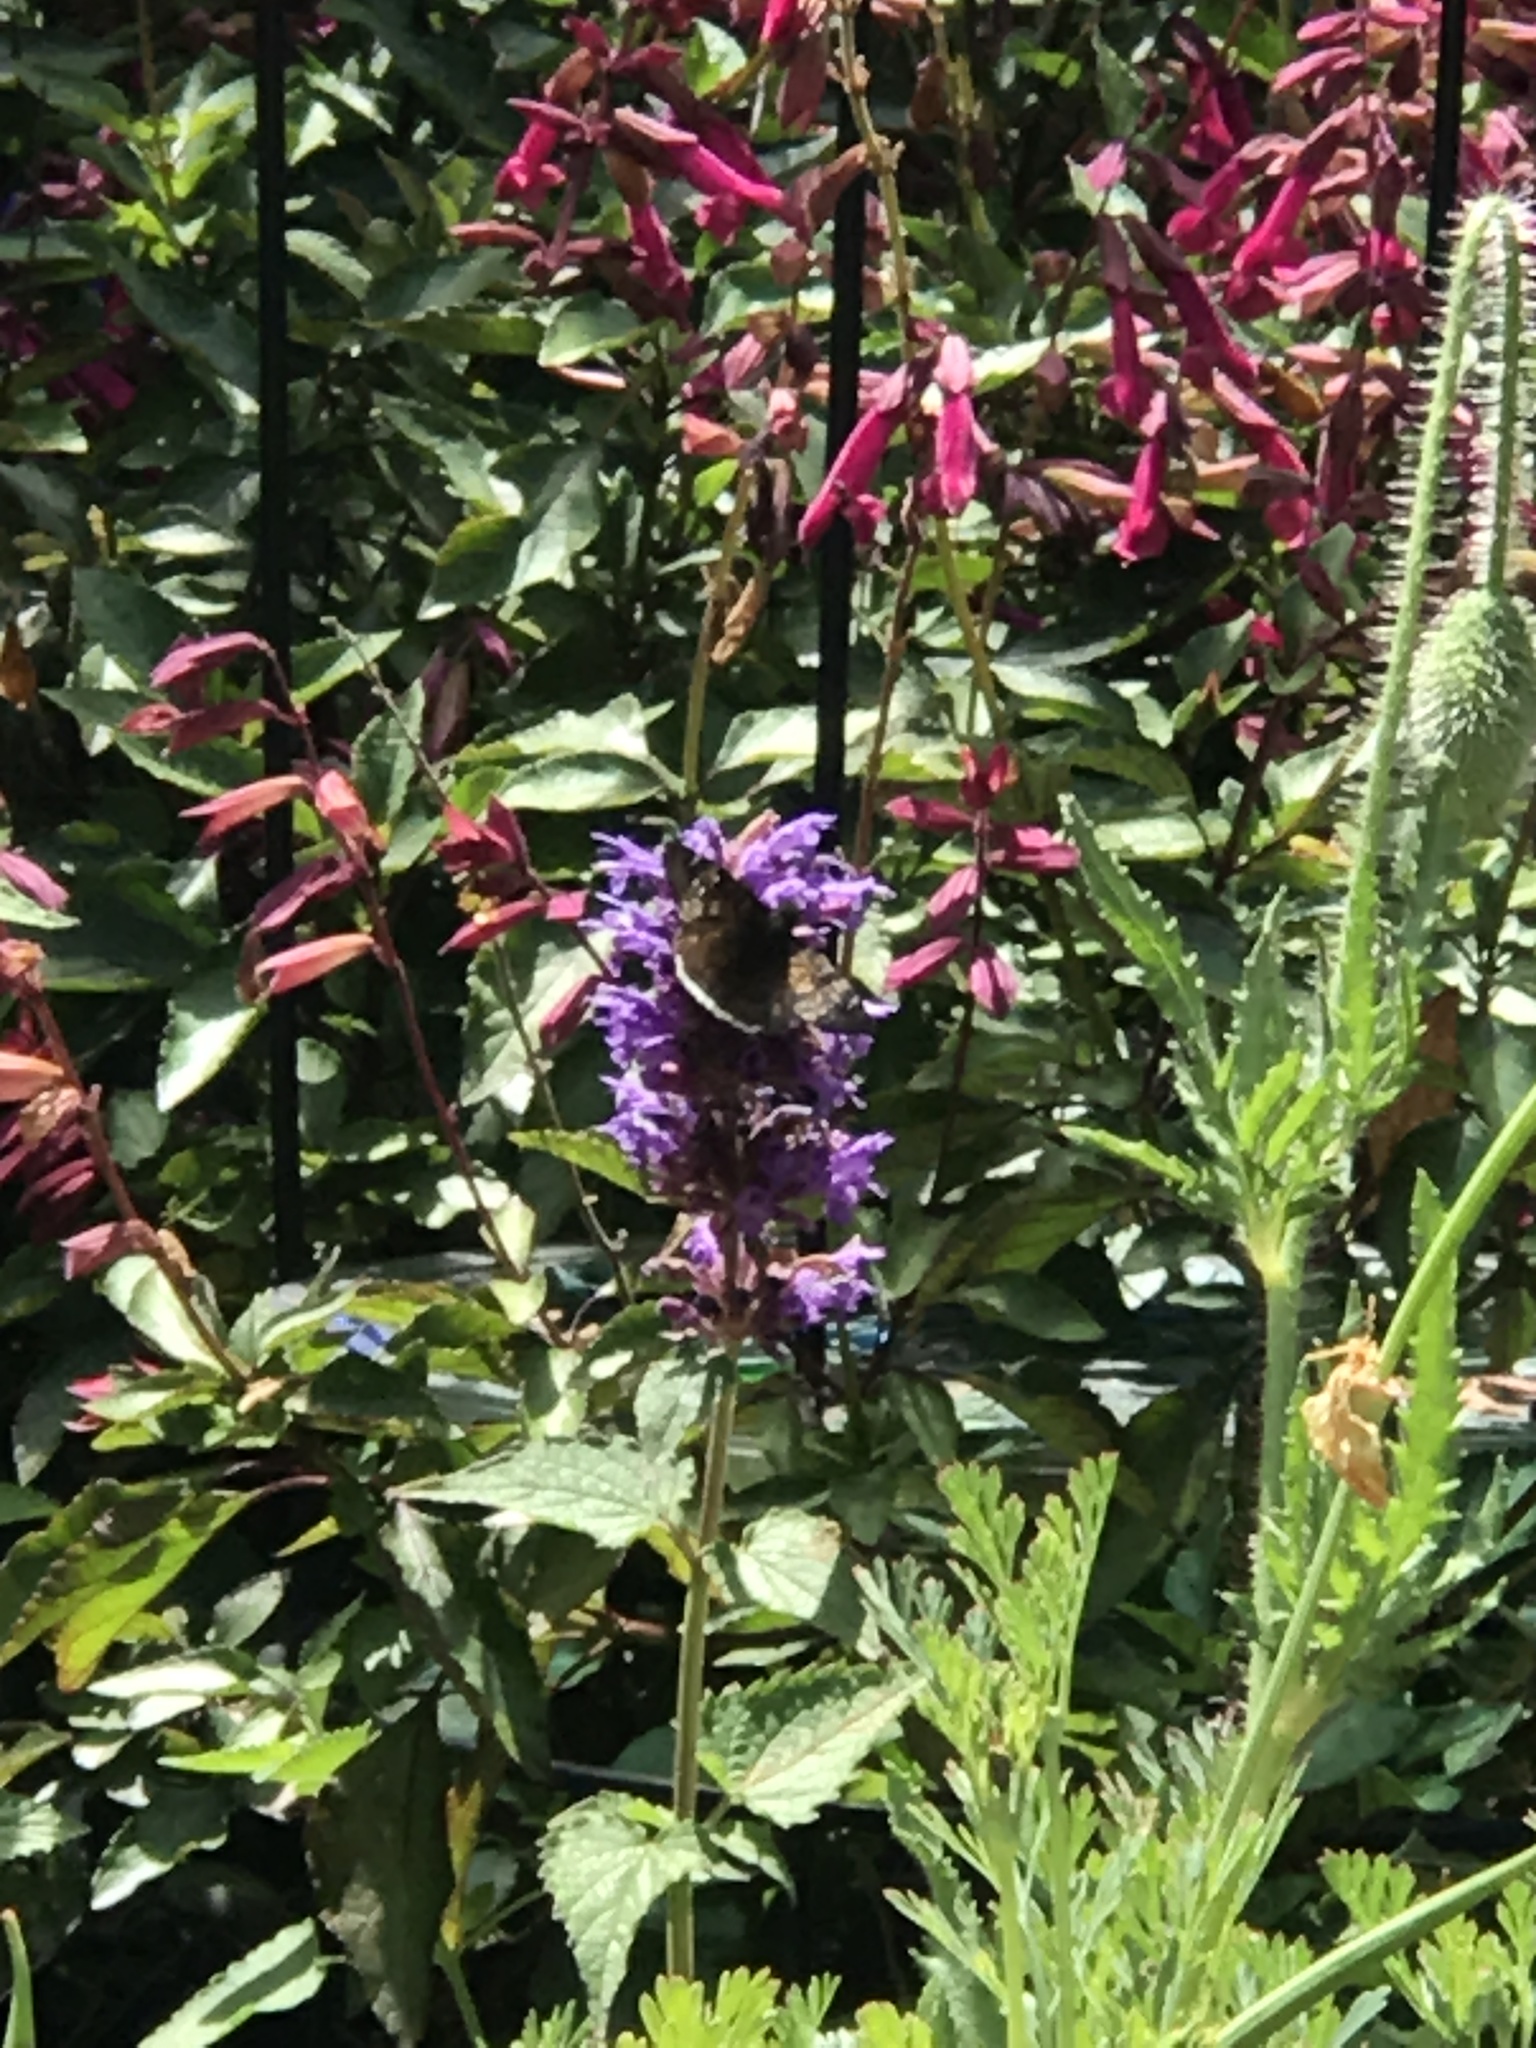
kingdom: Animalia
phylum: Arthropoda
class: Insecta
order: Lepidoptera
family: Hesperiidae
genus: Erynnis
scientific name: Erynnis tristis
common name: Mournful duskywing
